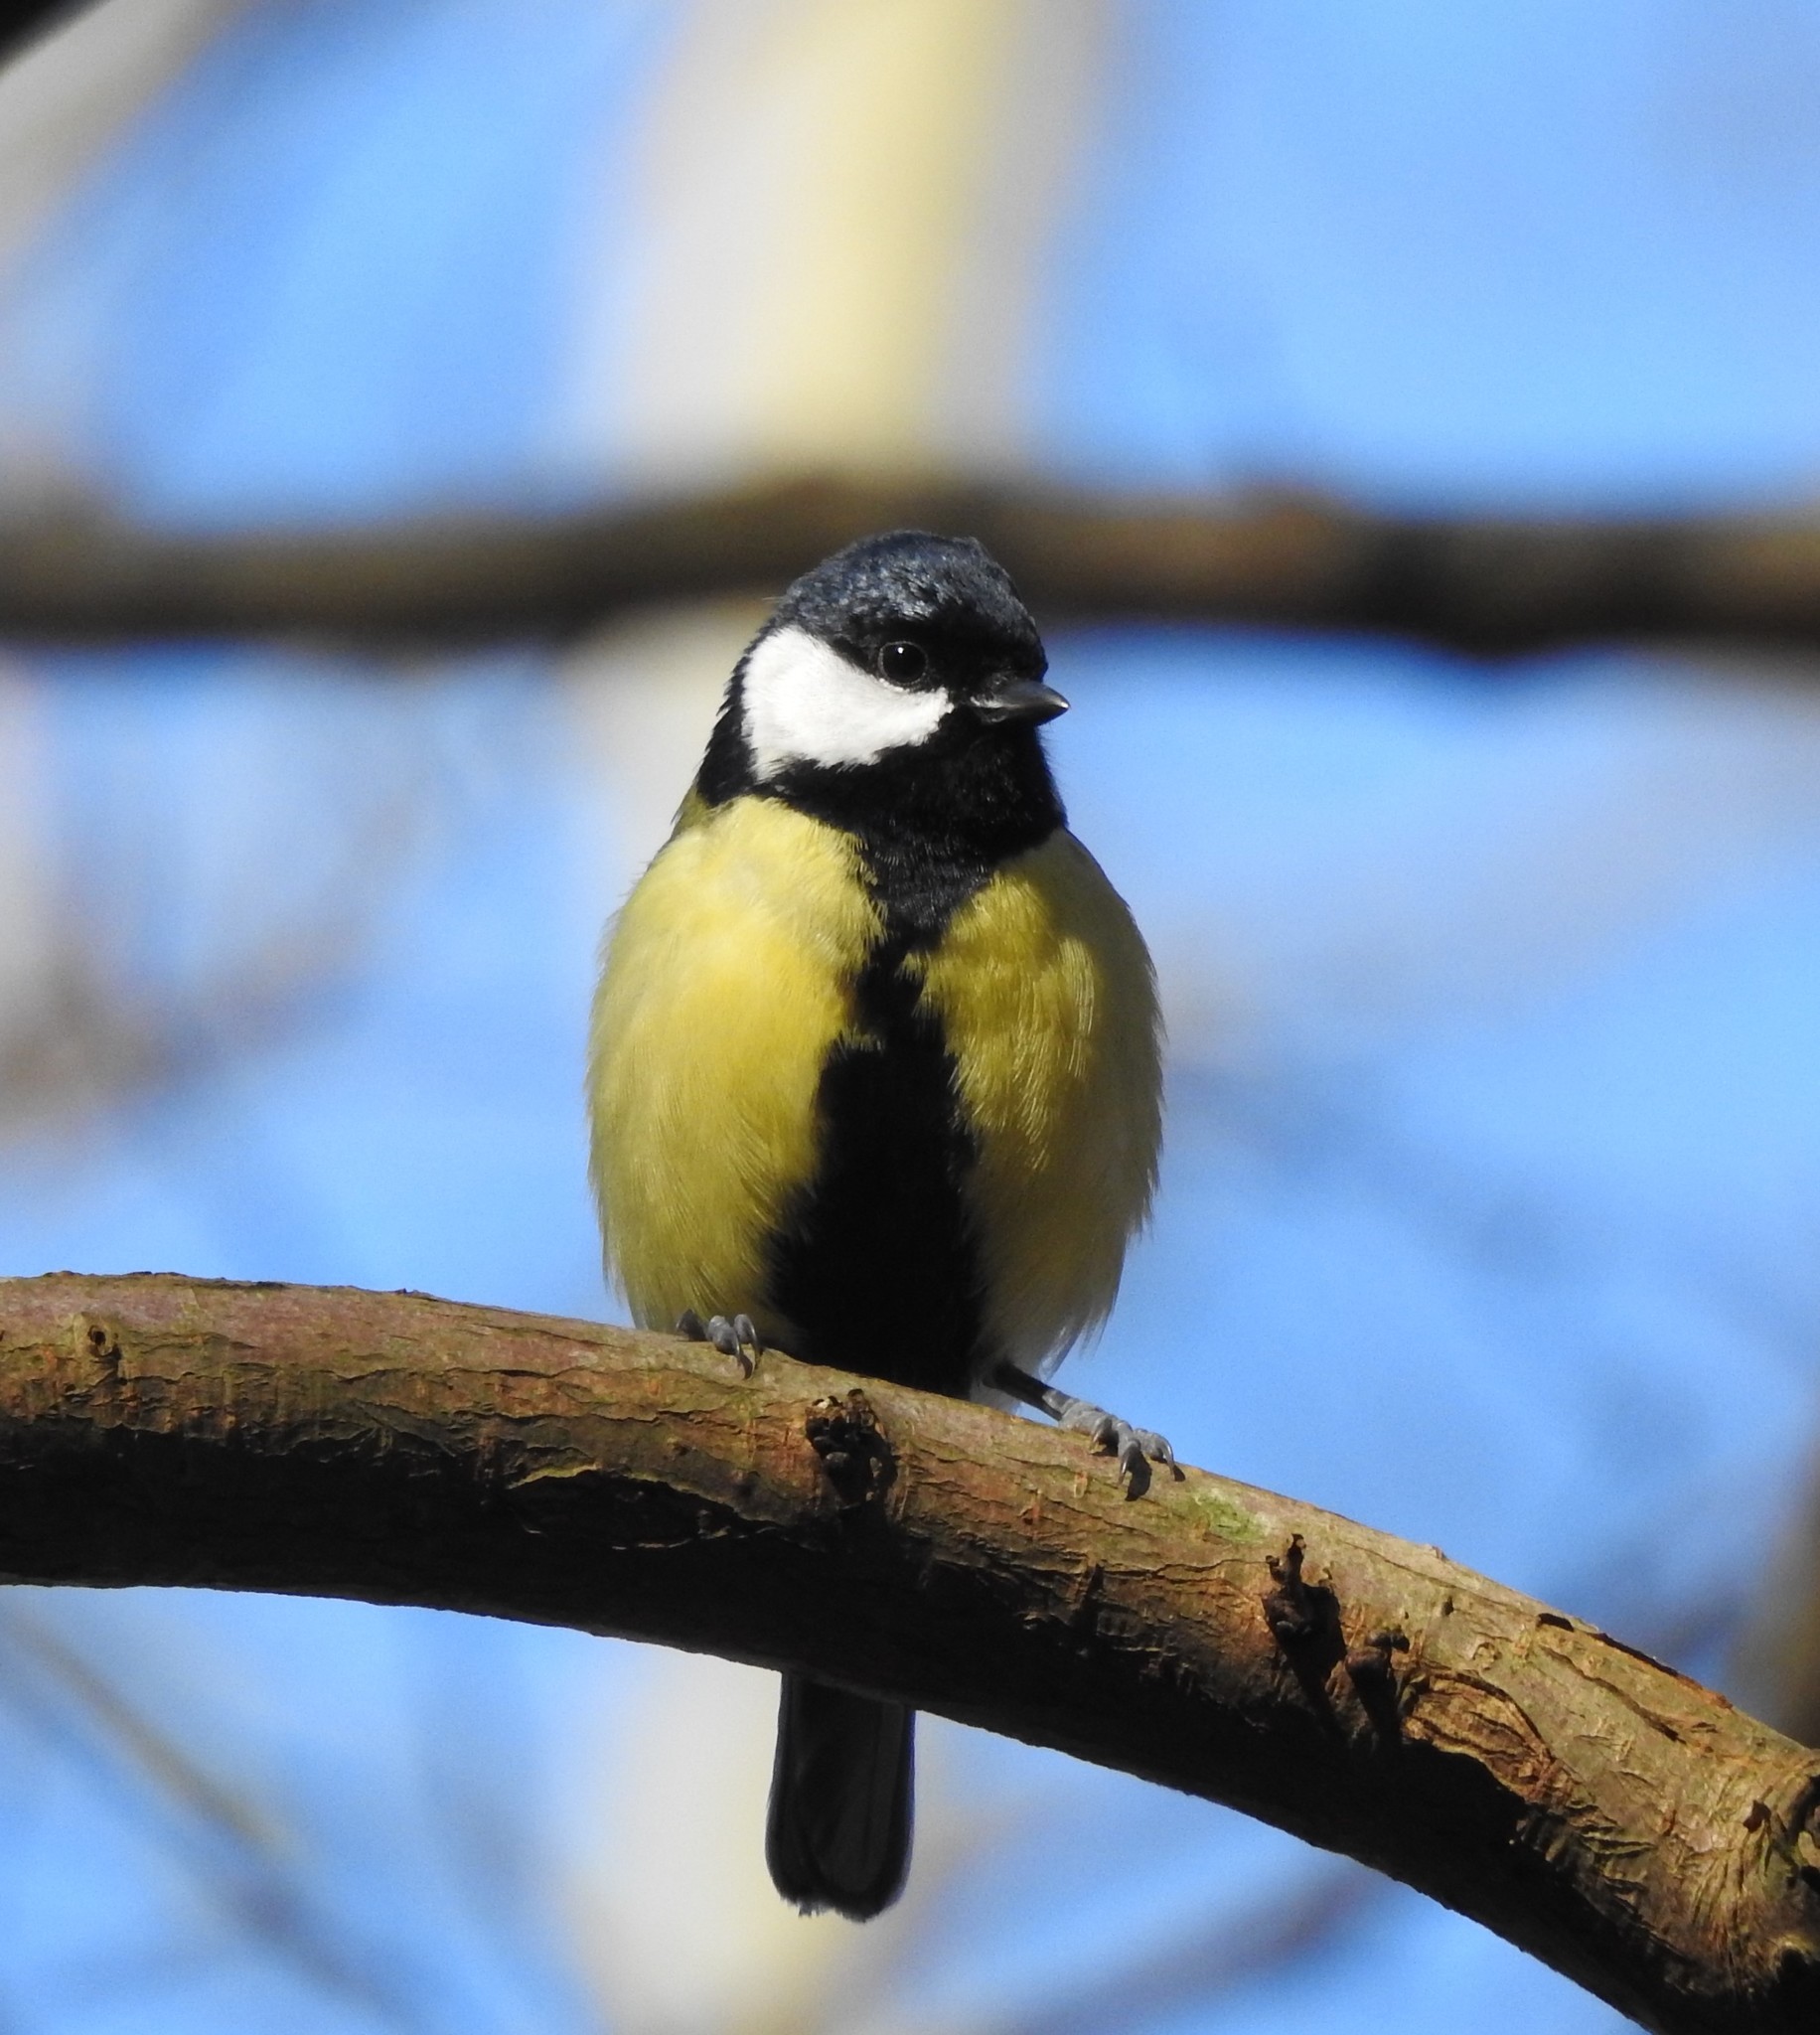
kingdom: Animalia
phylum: Chordata
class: Aves
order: Passeriformes
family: Paridae
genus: Parus
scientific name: Parus major
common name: Great tit
